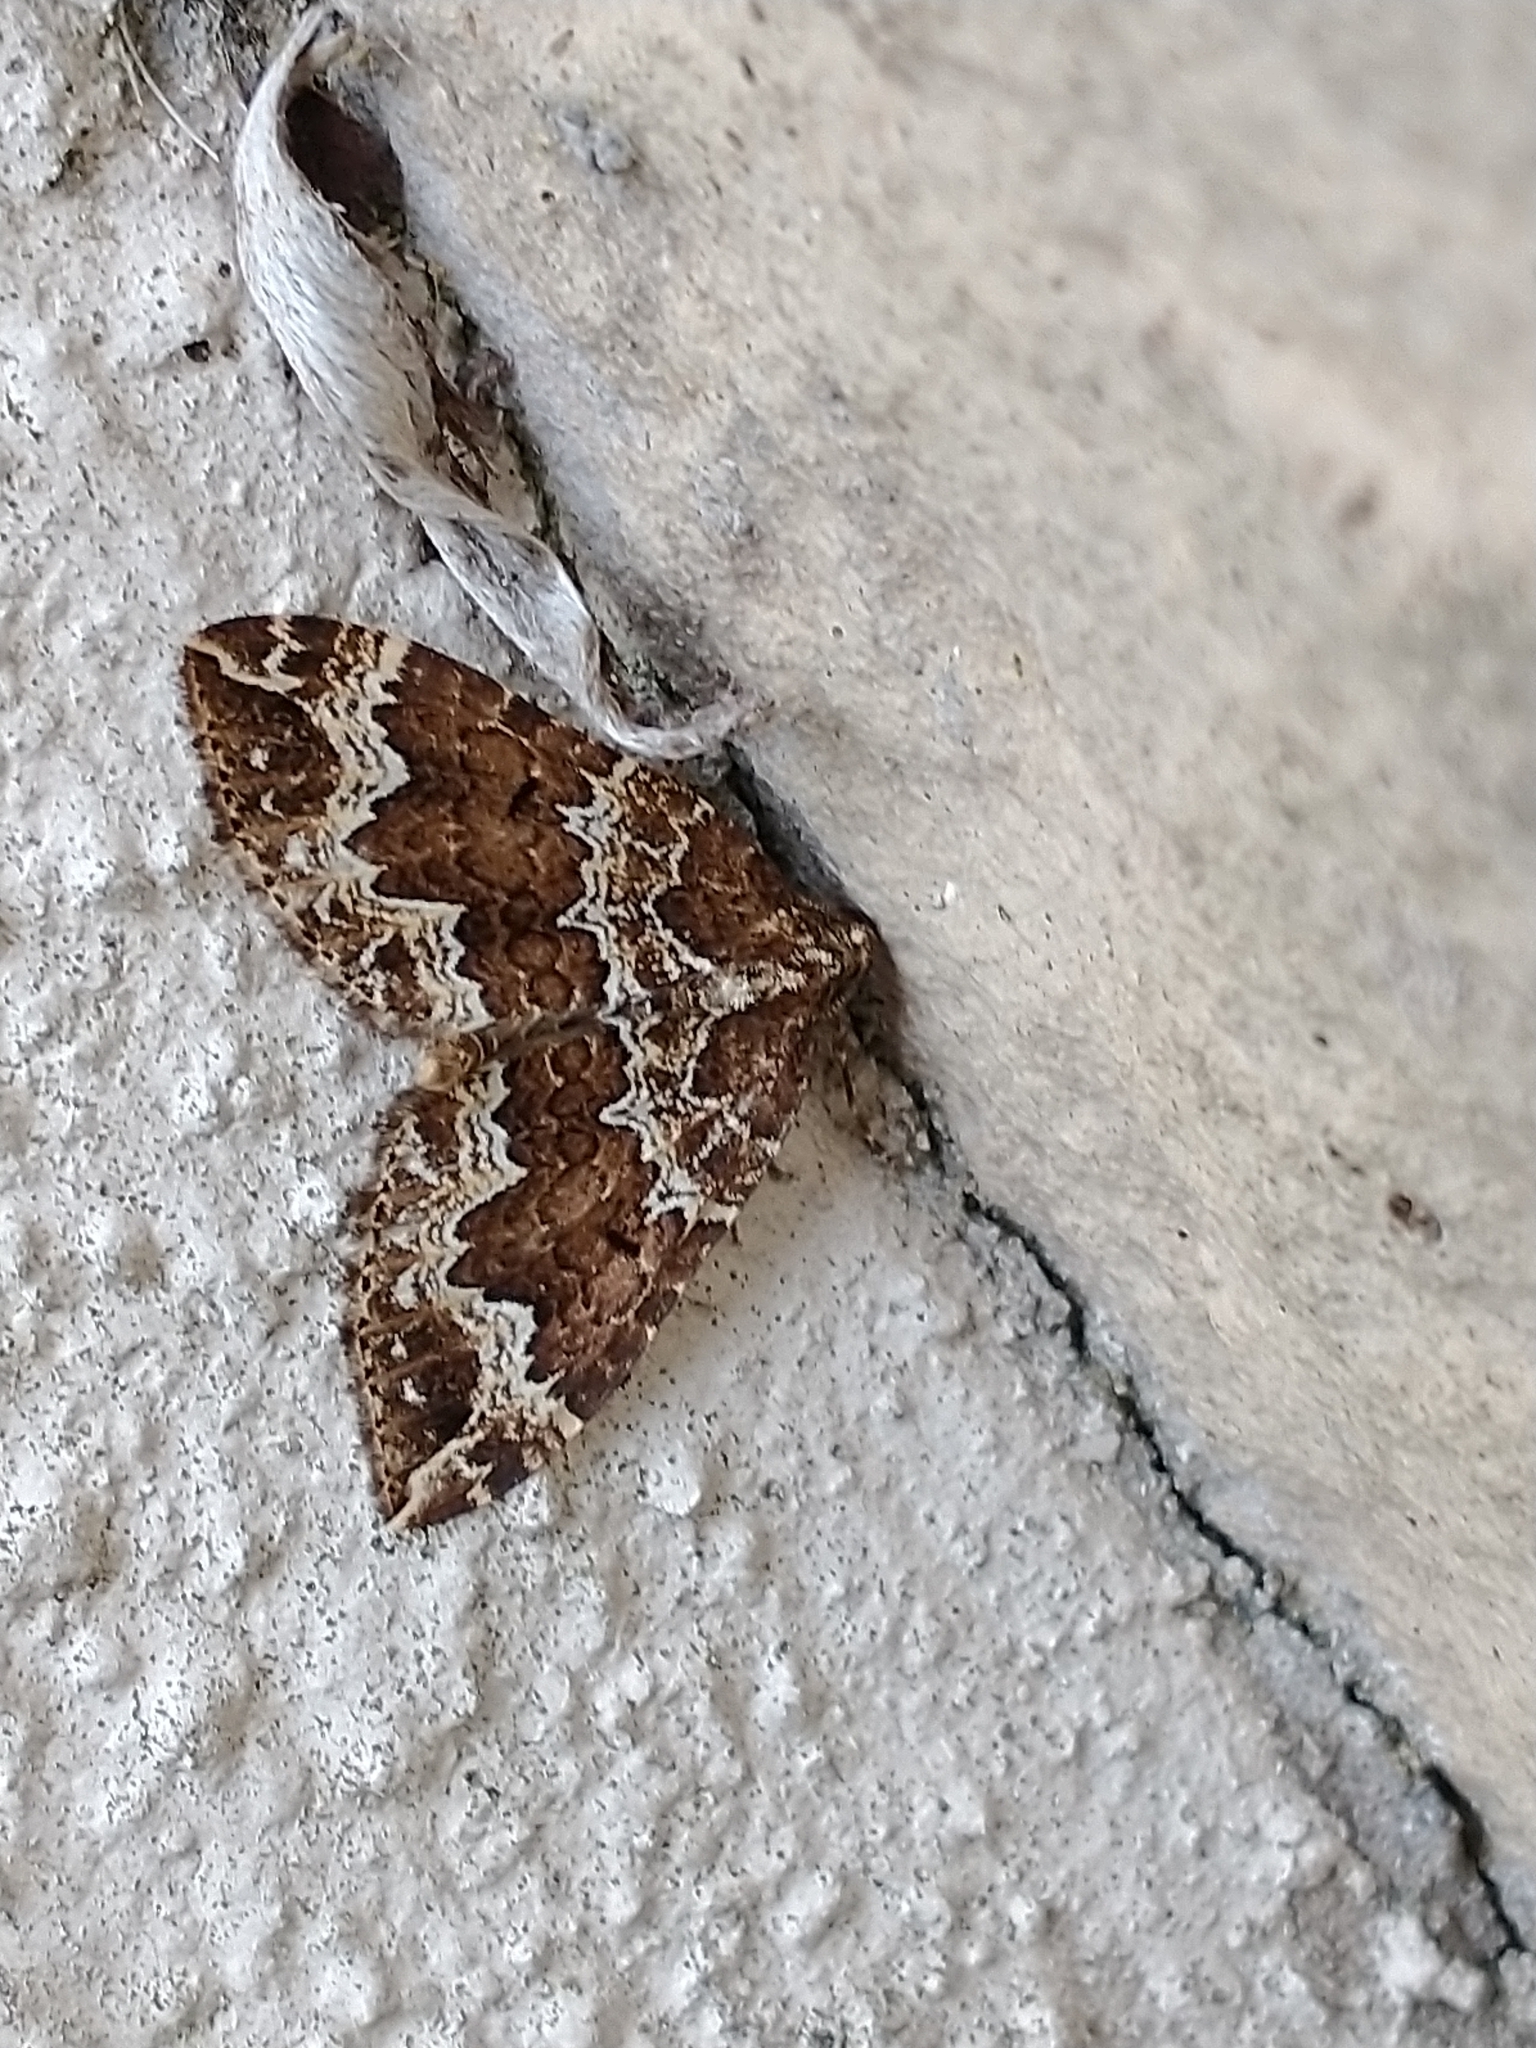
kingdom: Animalia
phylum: Arthropoda
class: Insecta
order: Lepidoptera
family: Geometridae
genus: Lampropteryx
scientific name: Lampropteryx suffumata
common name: Water carpet
